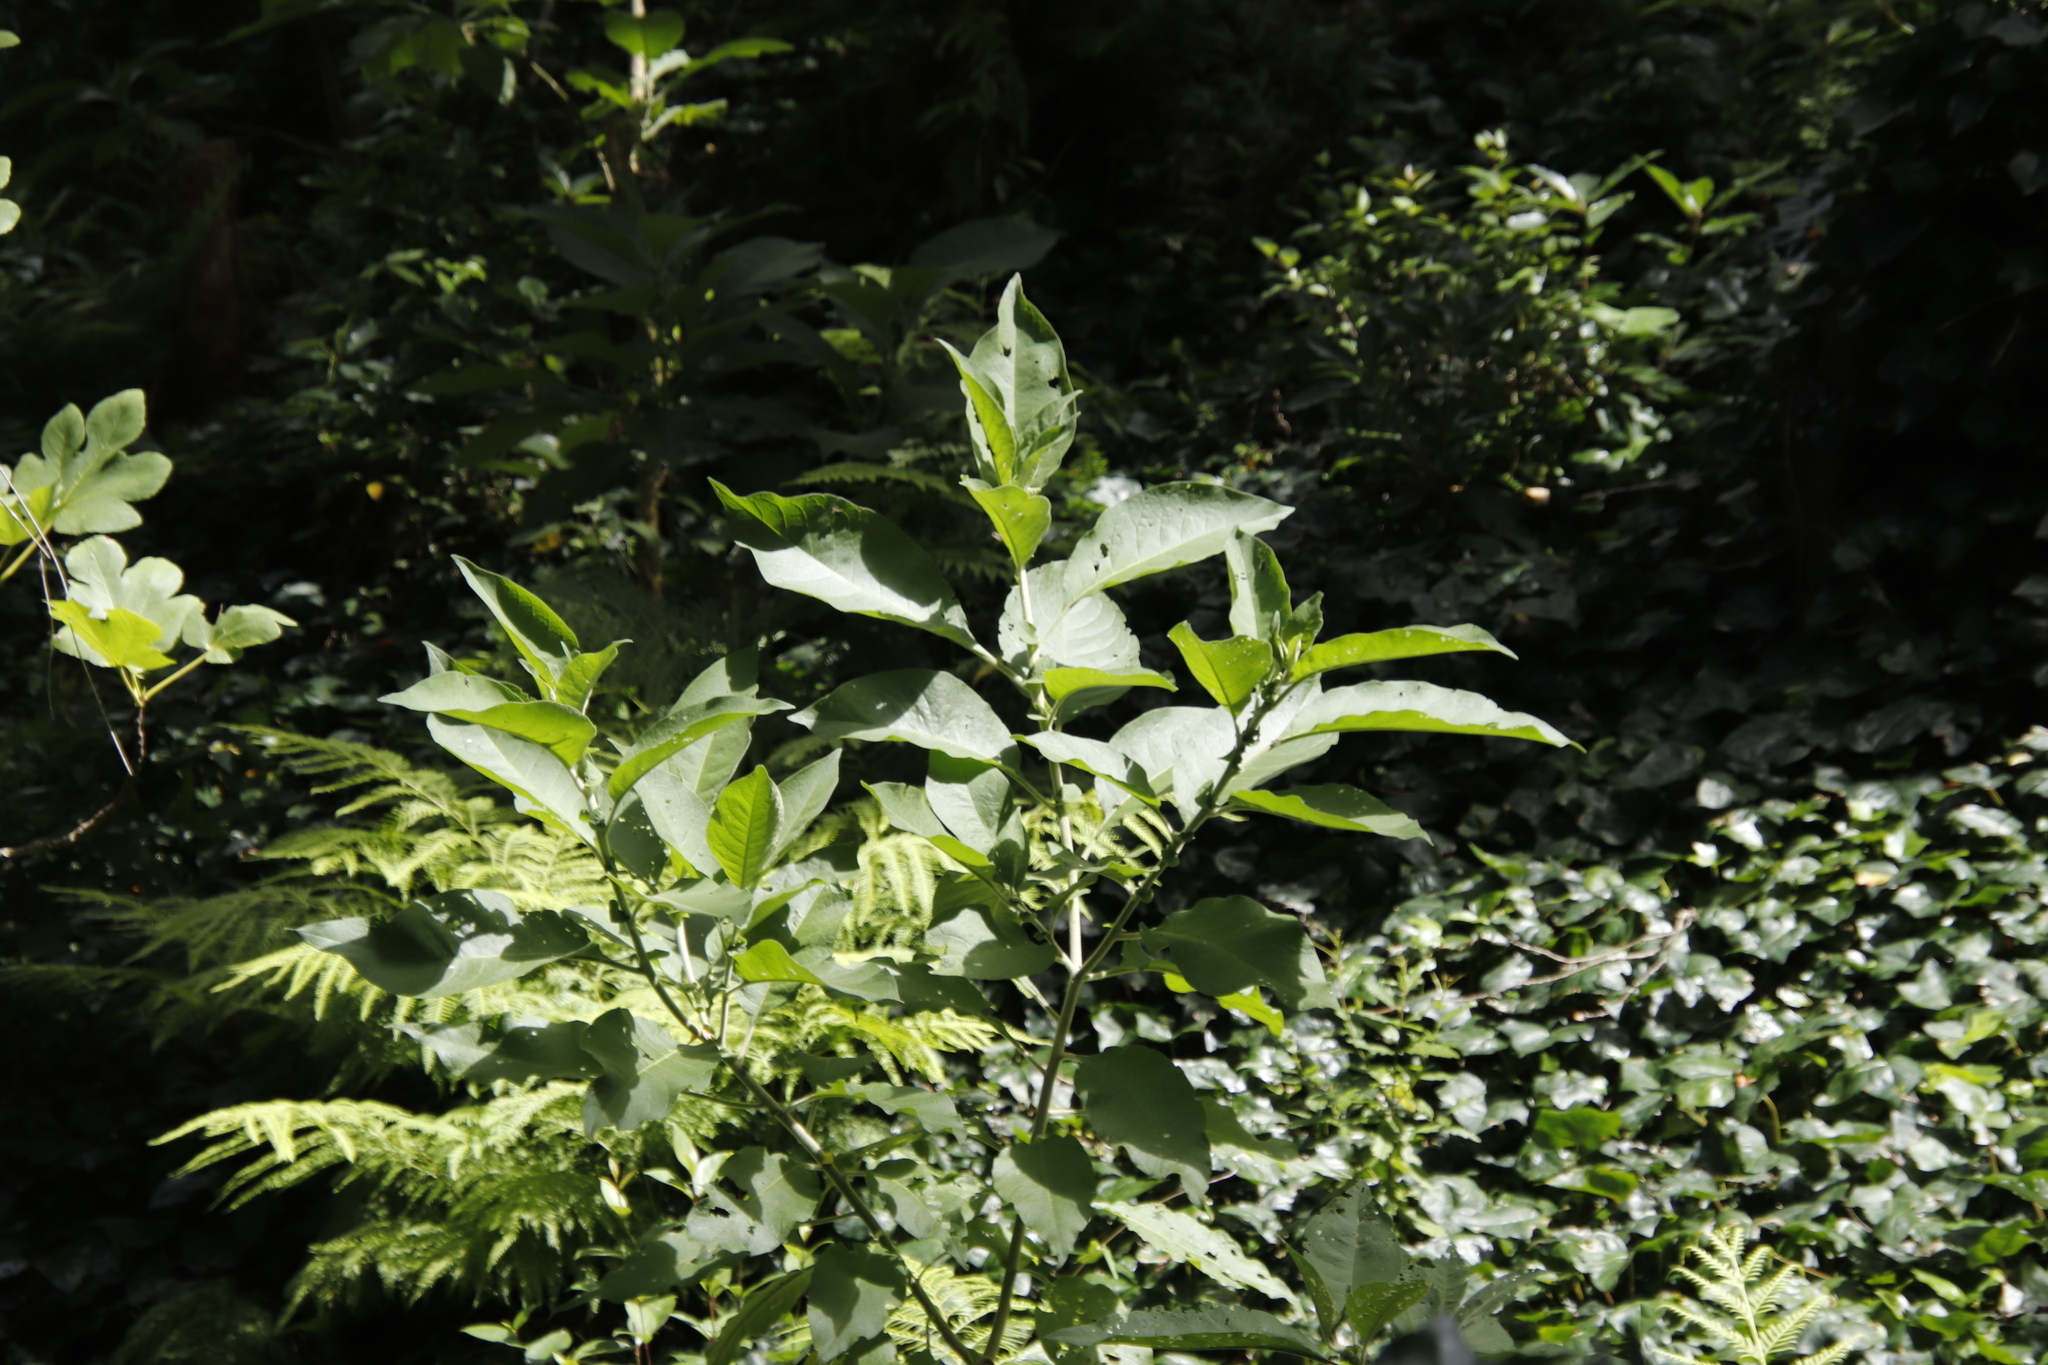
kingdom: Plantae
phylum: Tracheophyta
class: Magnoliopsida
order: Solanales
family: Solanaceae
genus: Solanum
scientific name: Solanum mauritianum
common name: Earleaf nightshade
